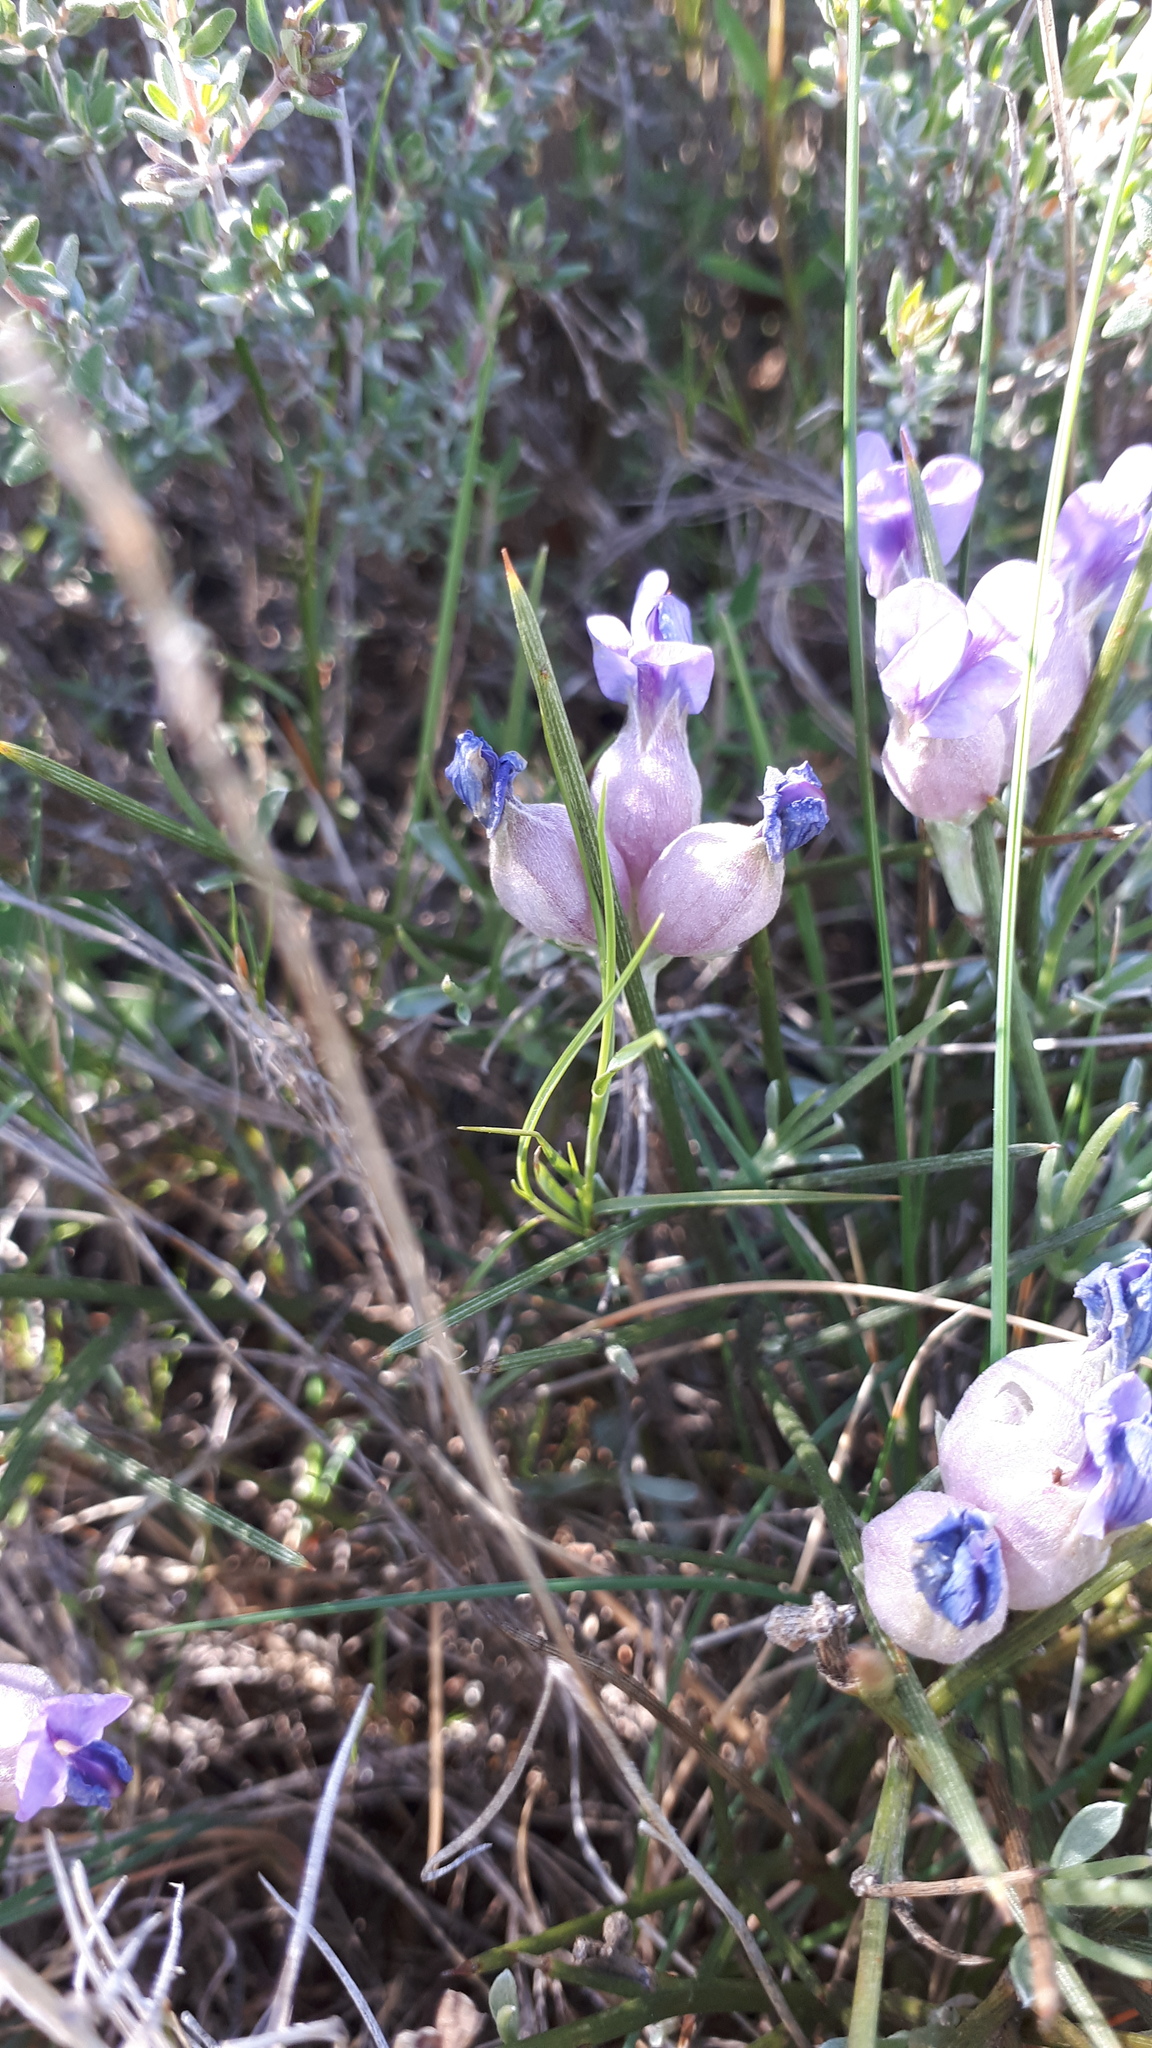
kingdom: Plantae
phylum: Tracheophyta
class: Magnoliopsida
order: Fabales
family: Fabaceae
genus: Erinacea
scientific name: Erinacea anthyllis
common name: Hedgehog-broom
